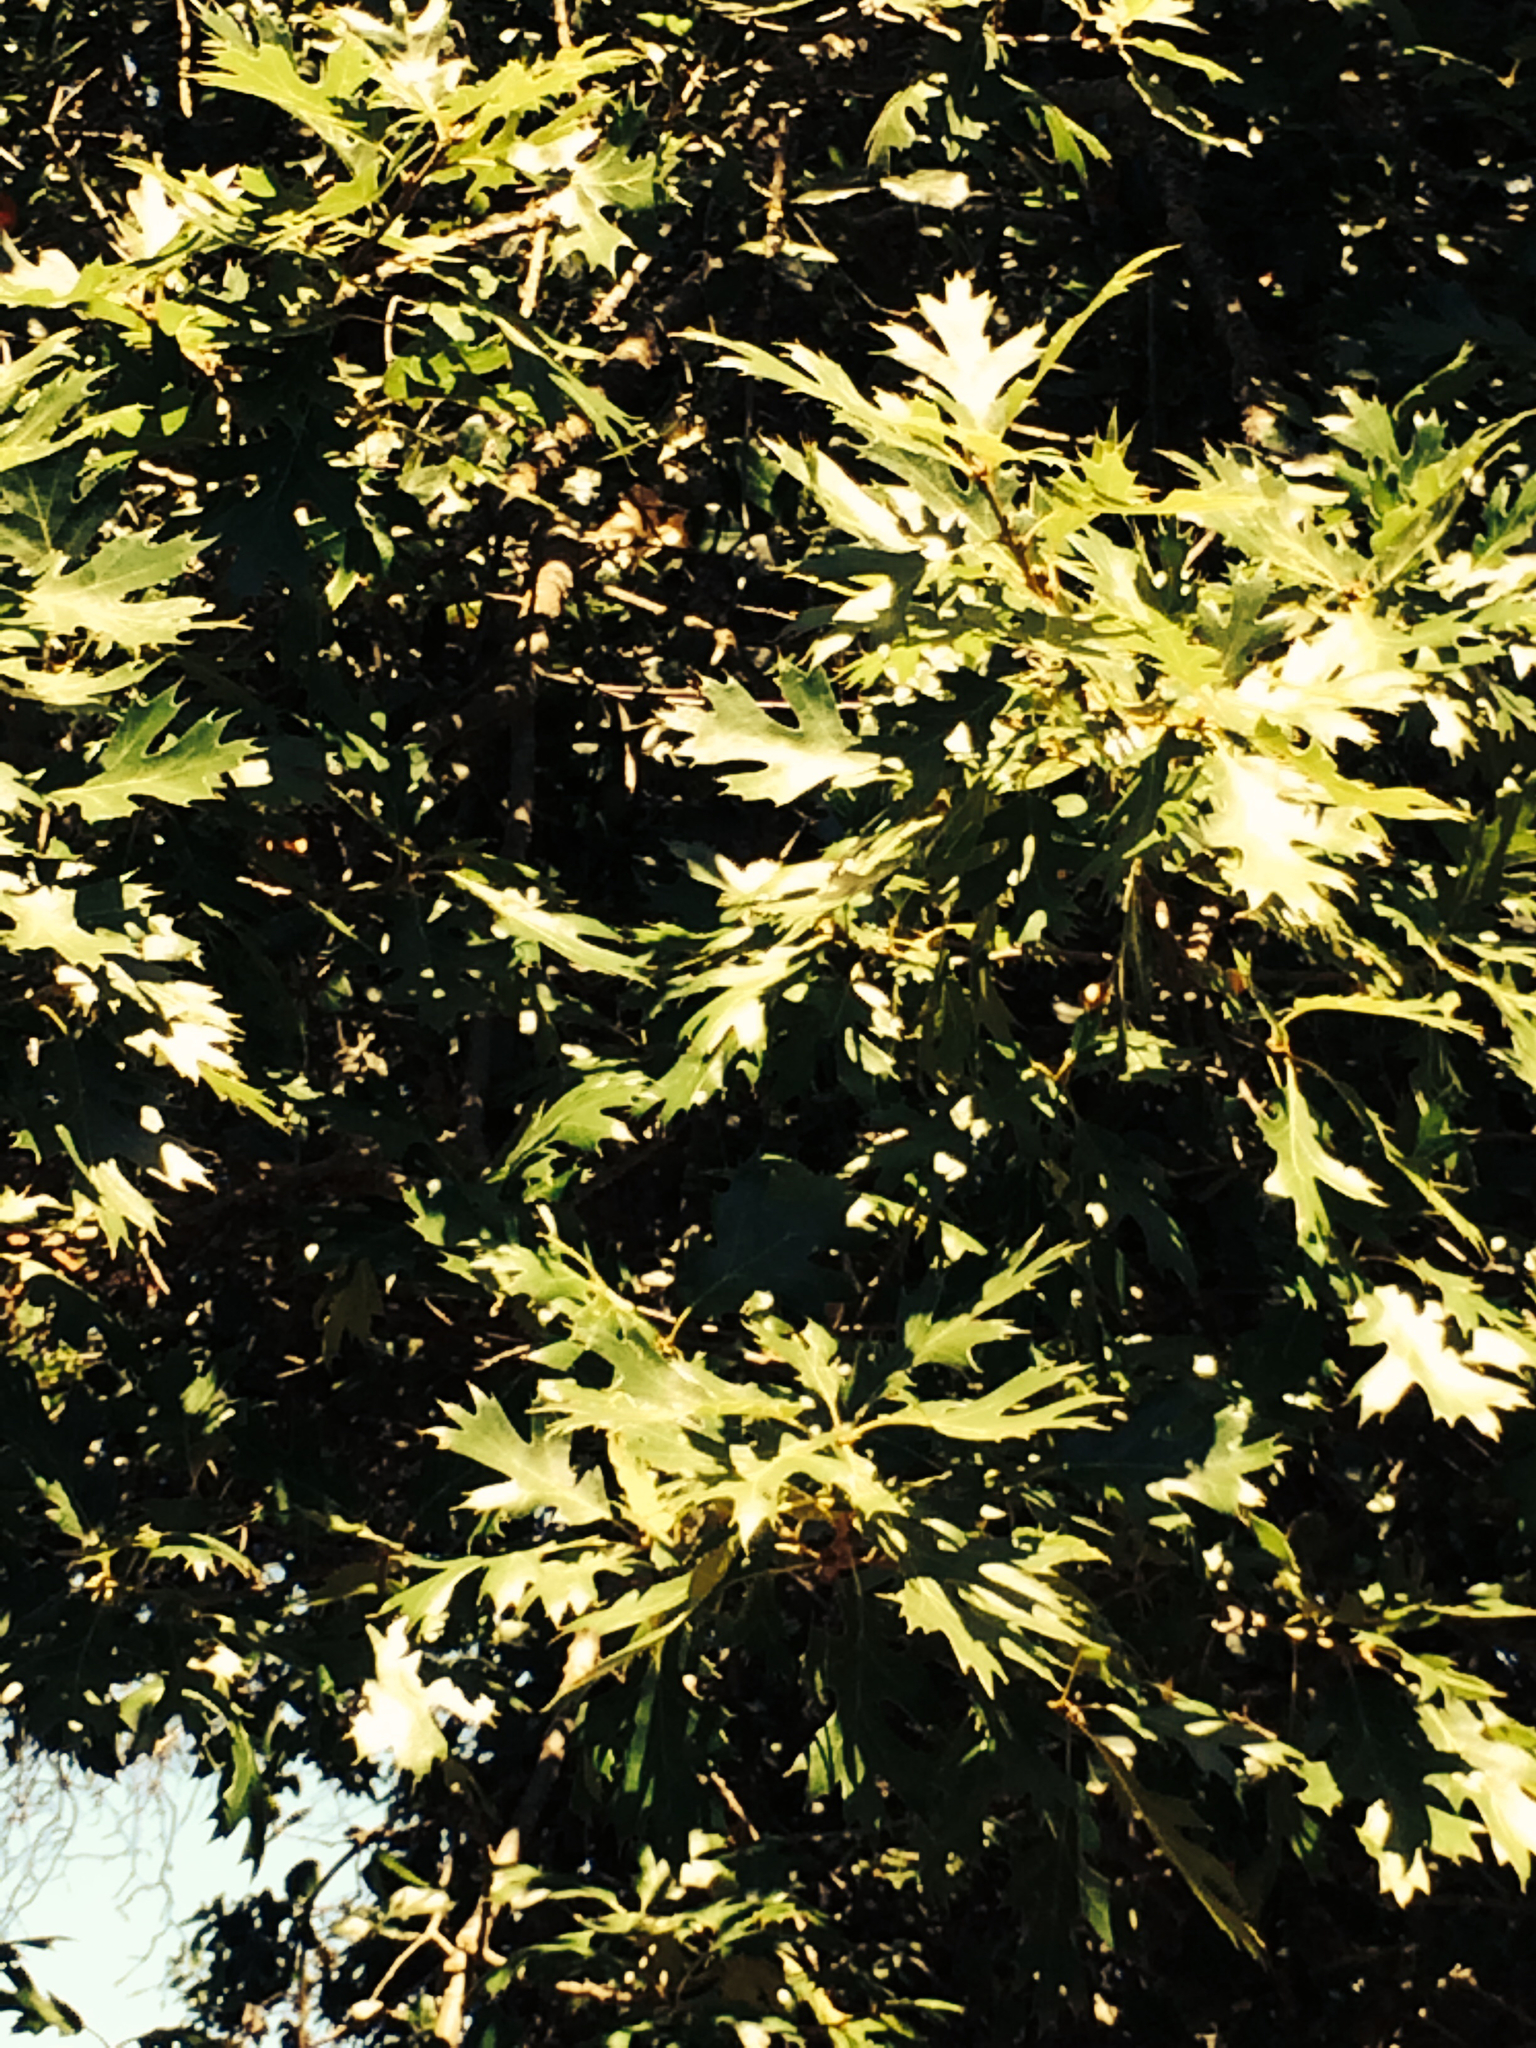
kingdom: Plantae
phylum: Tracheophyta
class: Magnoliopsida
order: Fagales
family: Fagaceae
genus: Quercus
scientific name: Quercus kelloggii
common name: California black oak
